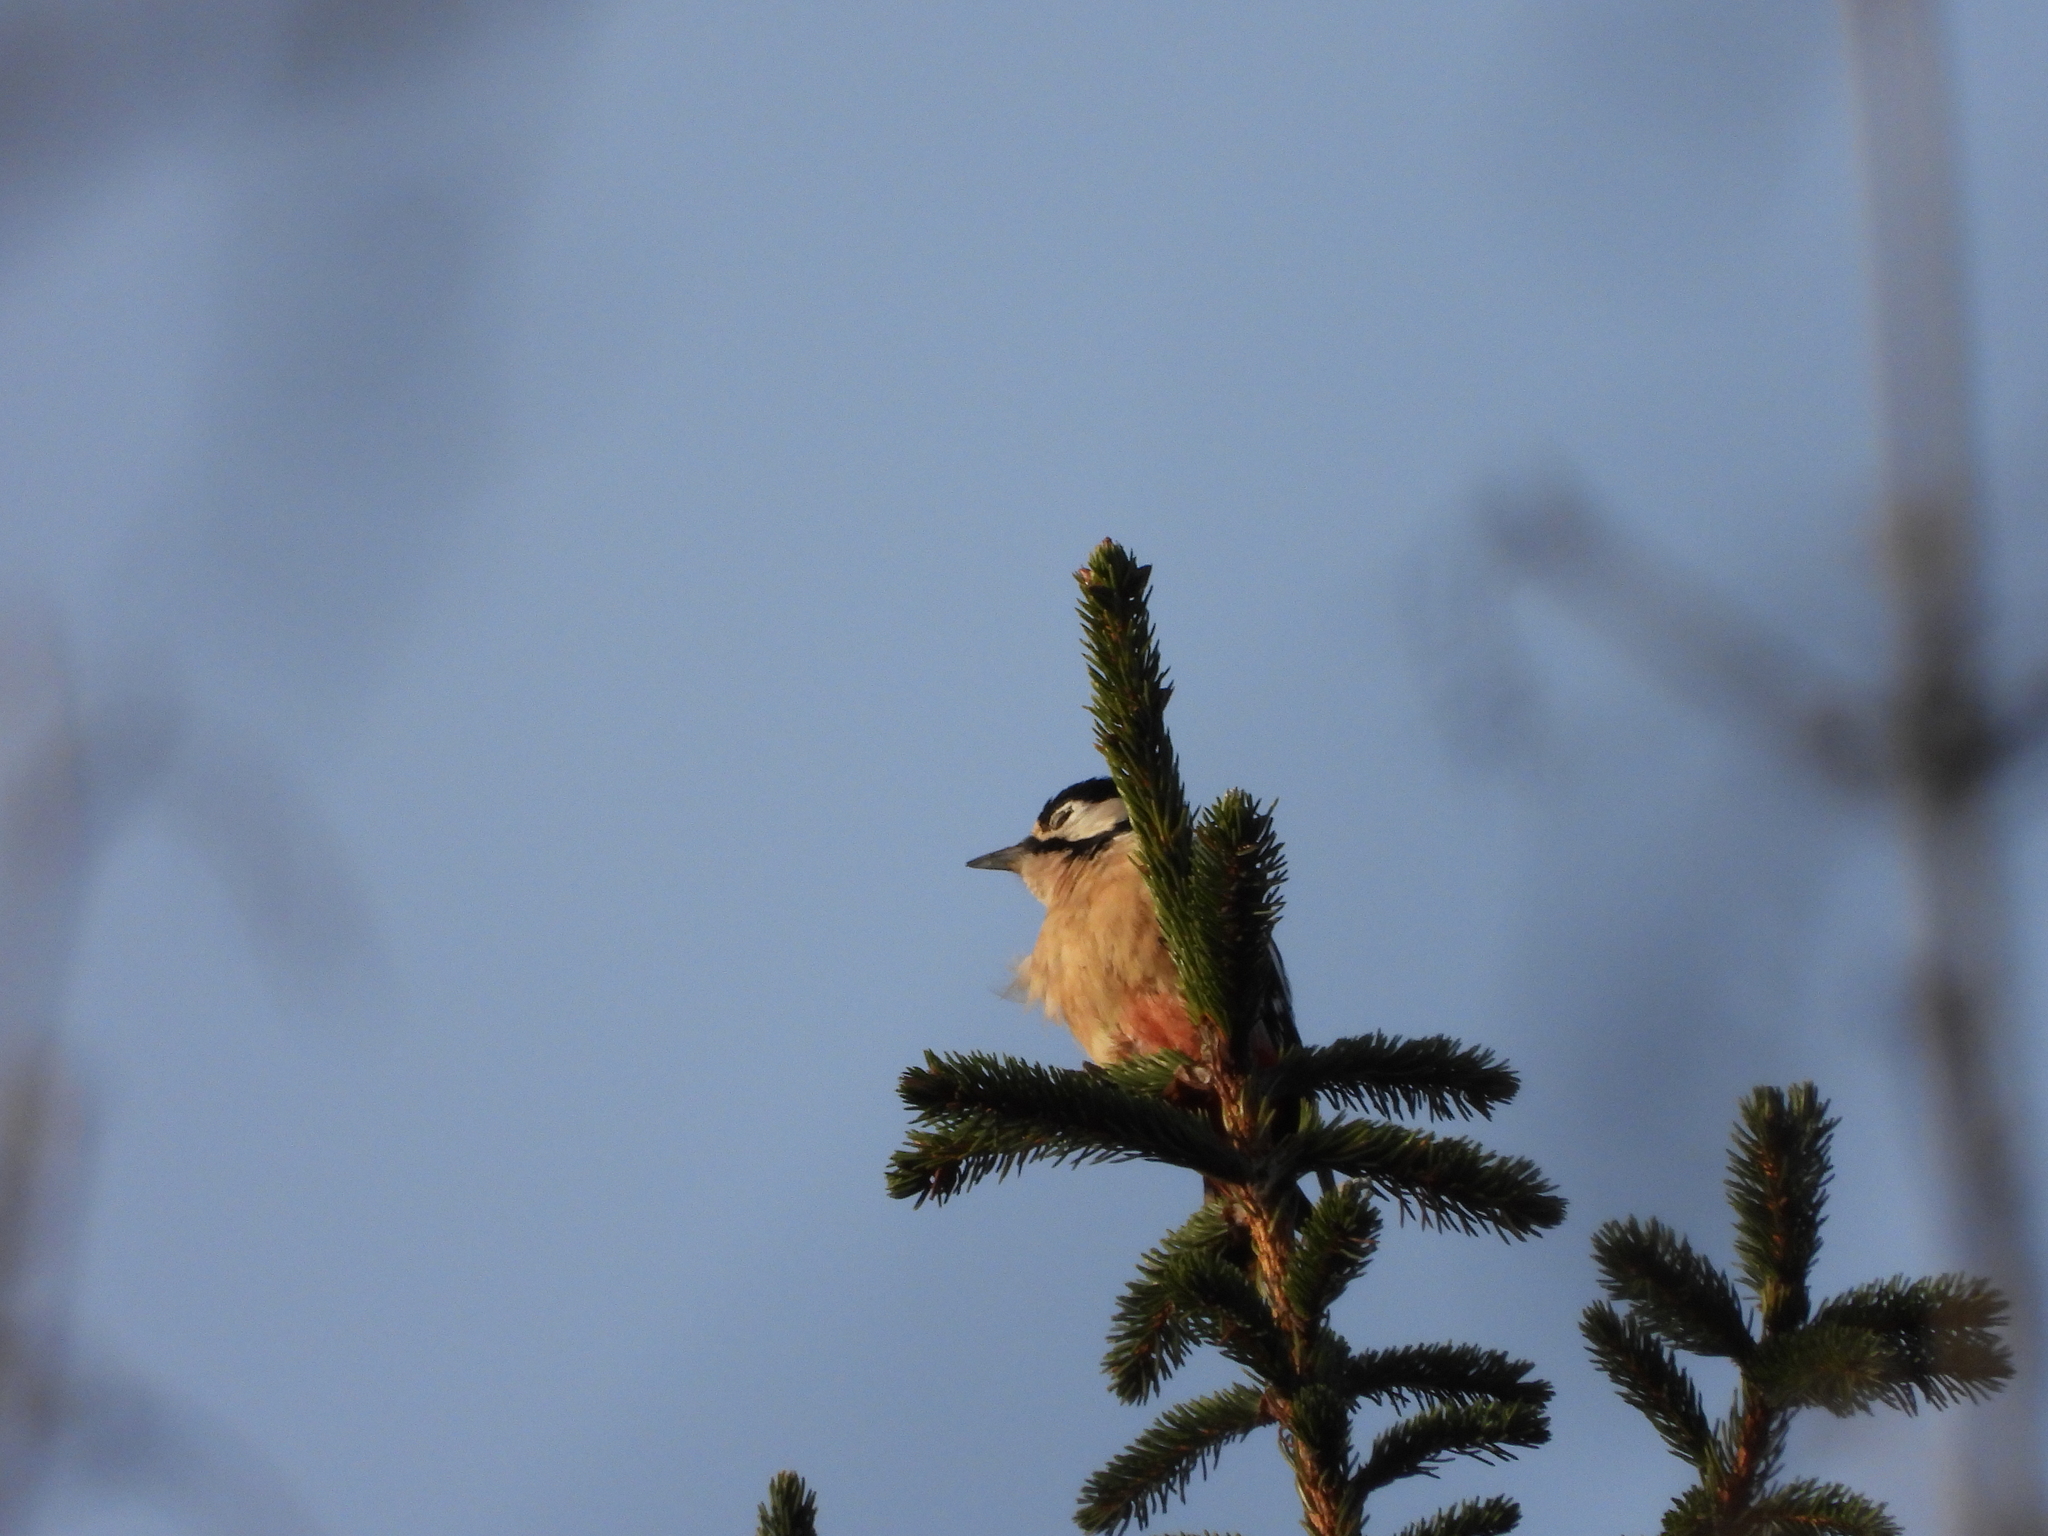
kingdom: Animalia
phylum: Chordata
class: Aves
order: Piciformes
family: Picidae
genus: Dendrocopos
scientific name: Dendrocopos major
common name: Great spotted woodpecker
